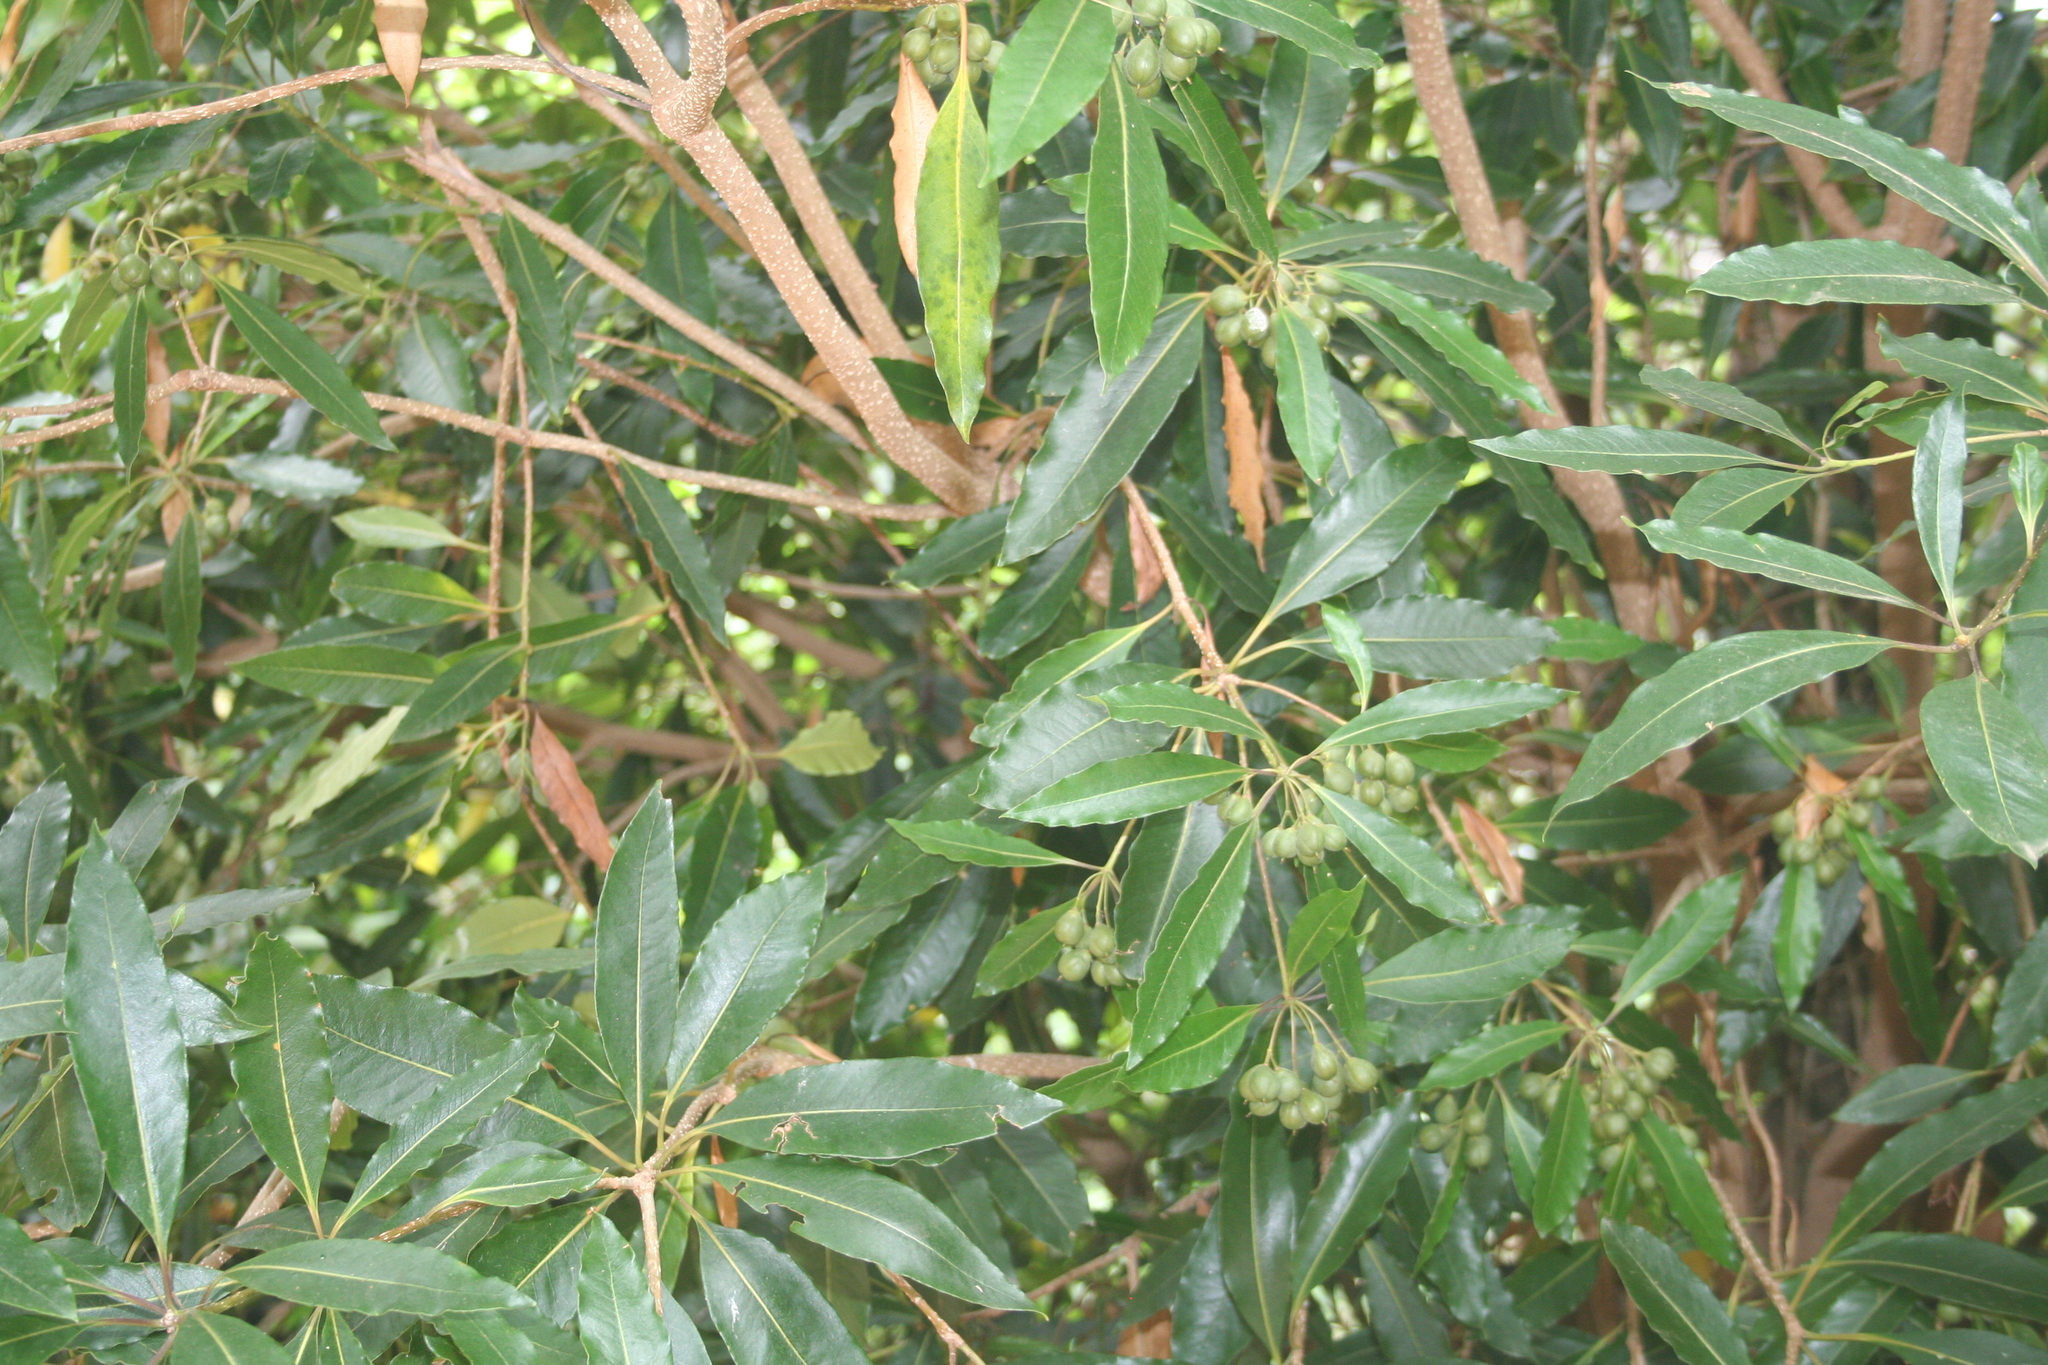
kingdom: Plantae
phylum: Tracheophyta
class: Magnoliopsida
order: Apiales
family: Pittosporaceae
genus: Pittosporum
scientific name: Pittosporum undulatum
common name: Australian cheesewood
